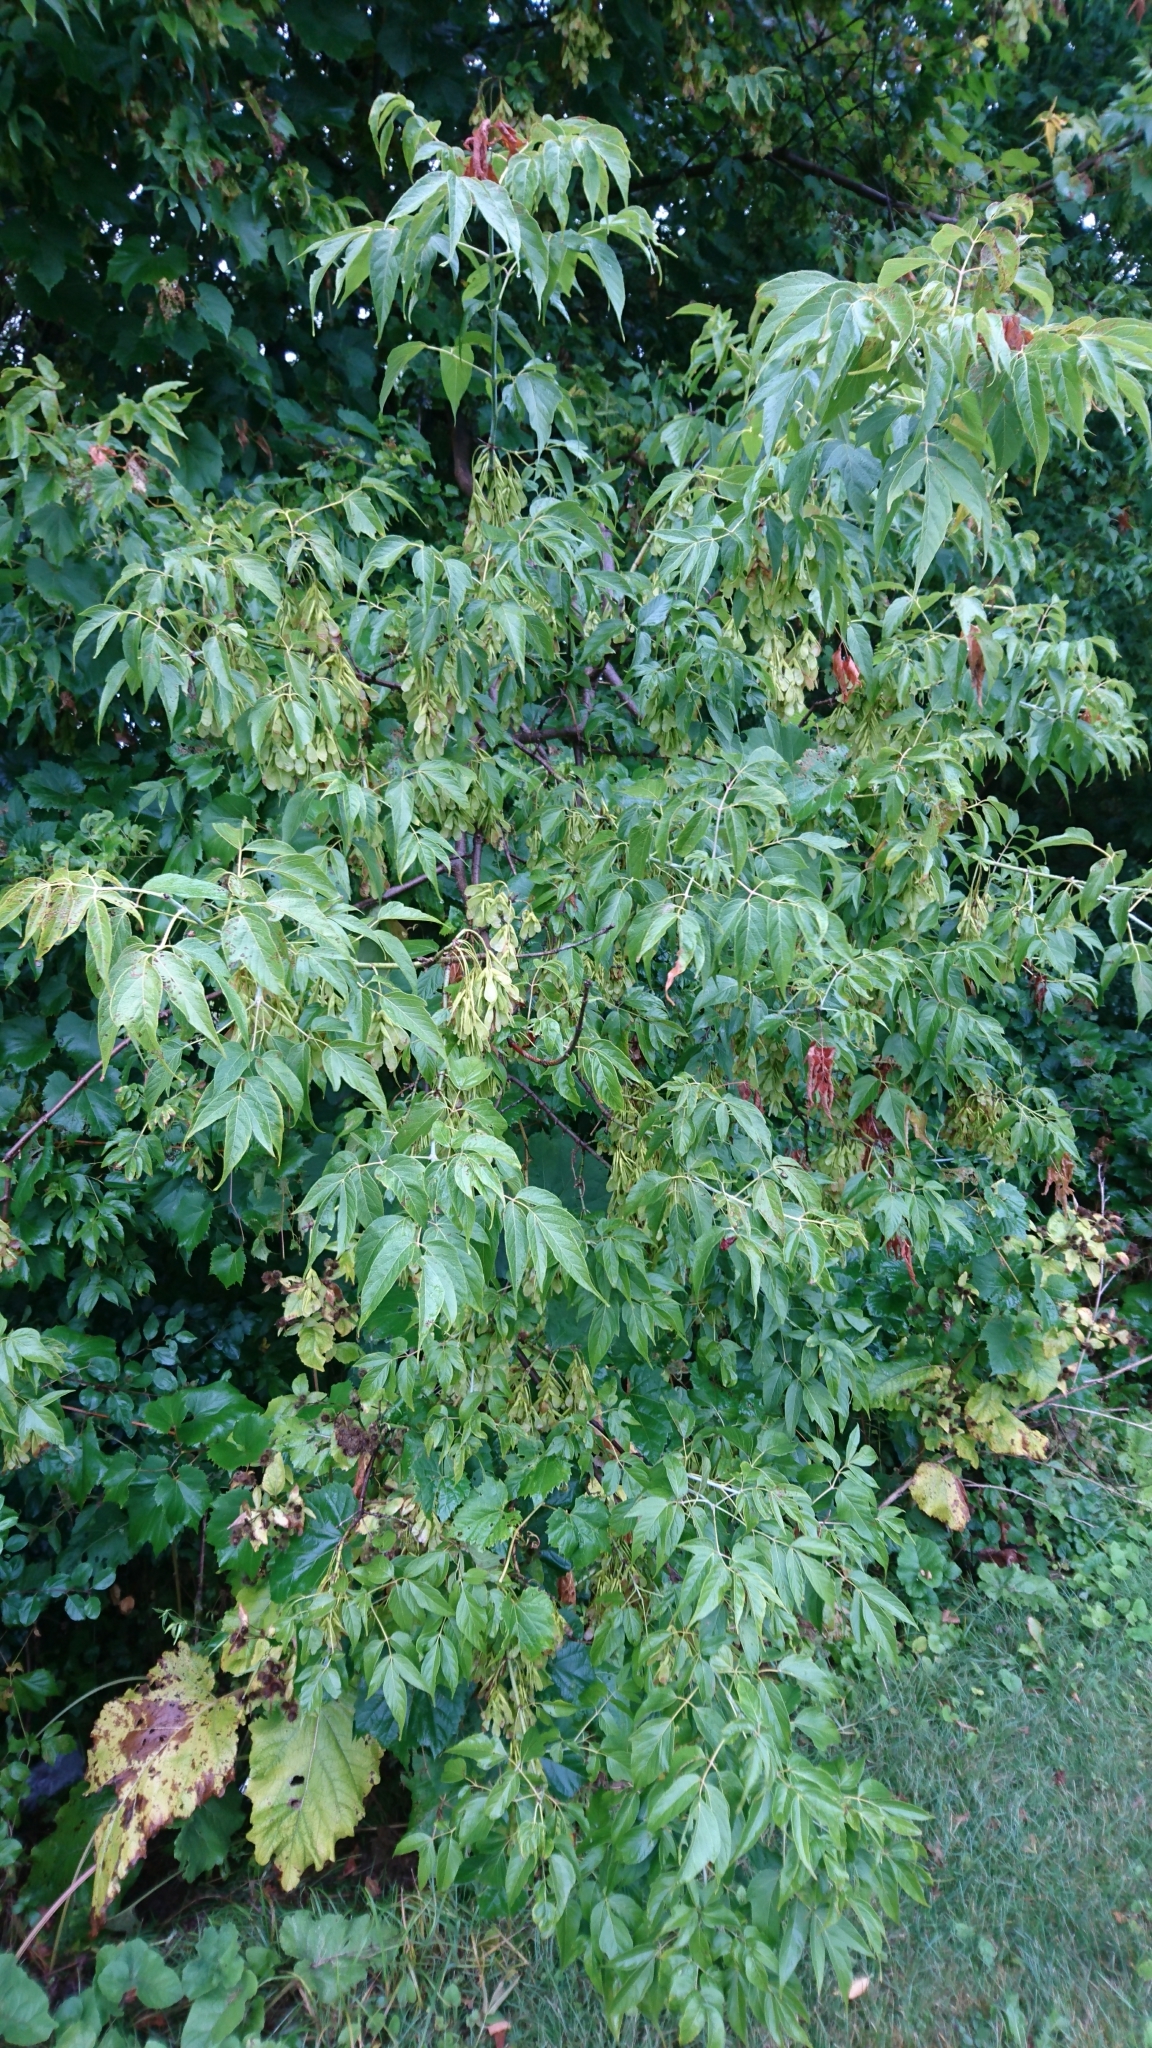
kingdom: Plantae
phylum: Tracheophyta
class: Magnoliopsida
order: Sapindales
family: Sapindaceae
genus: Acer
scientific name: Acer negundo
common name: Ashleaf maple
